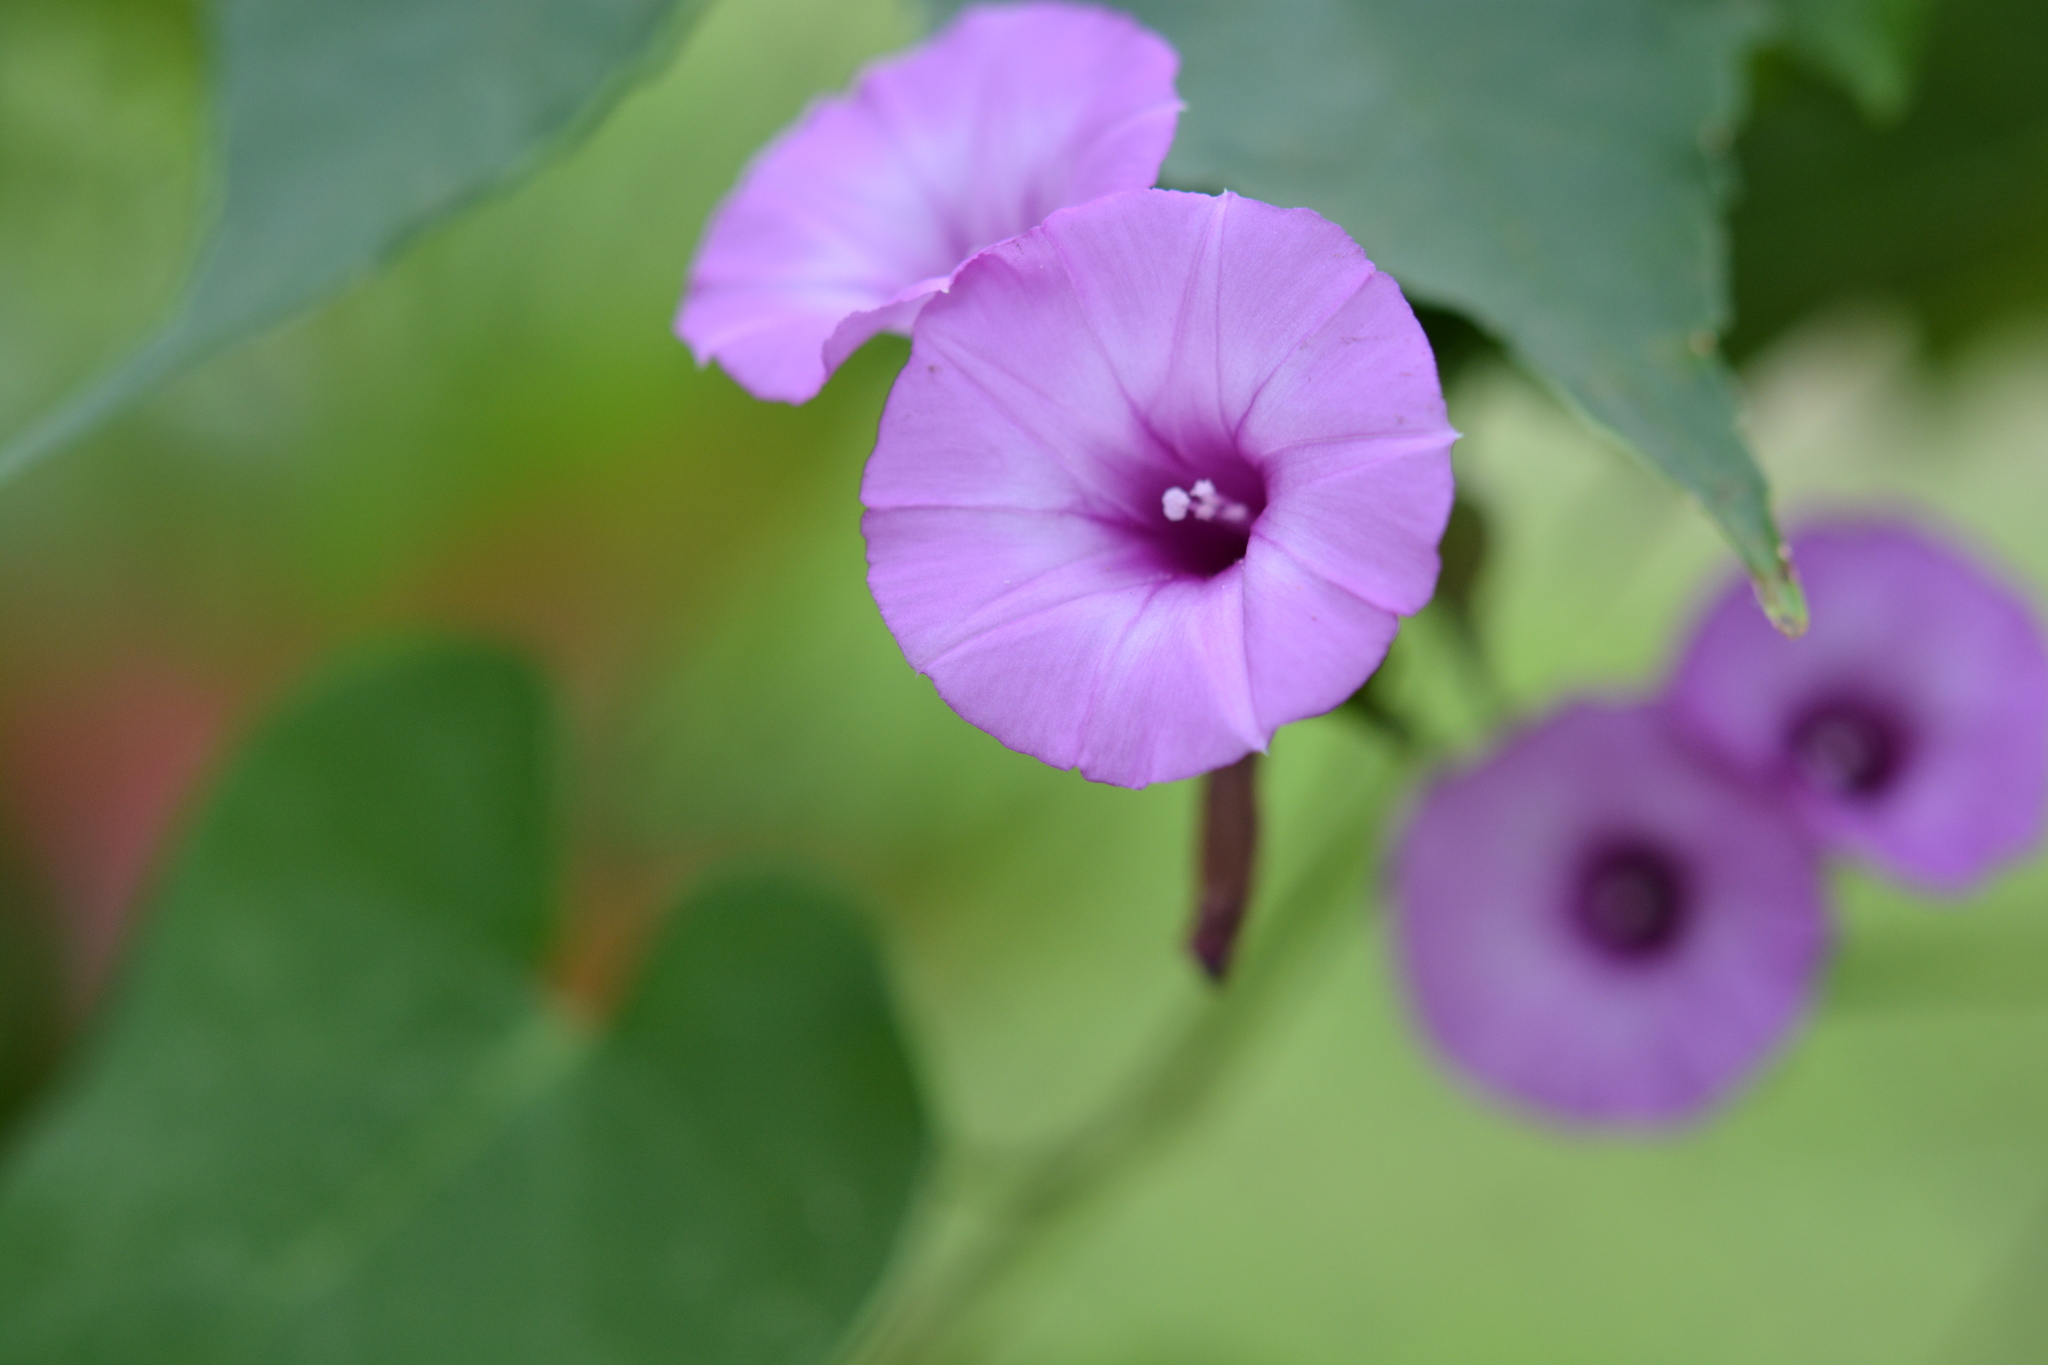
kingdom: Plantae
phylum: Tracheophyta
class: Magnoliopsida
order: Solanales
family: Convolvulaceae
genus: Ipomoea
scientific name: Ipomoea cordatotriloba
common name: Cotton morning glory
